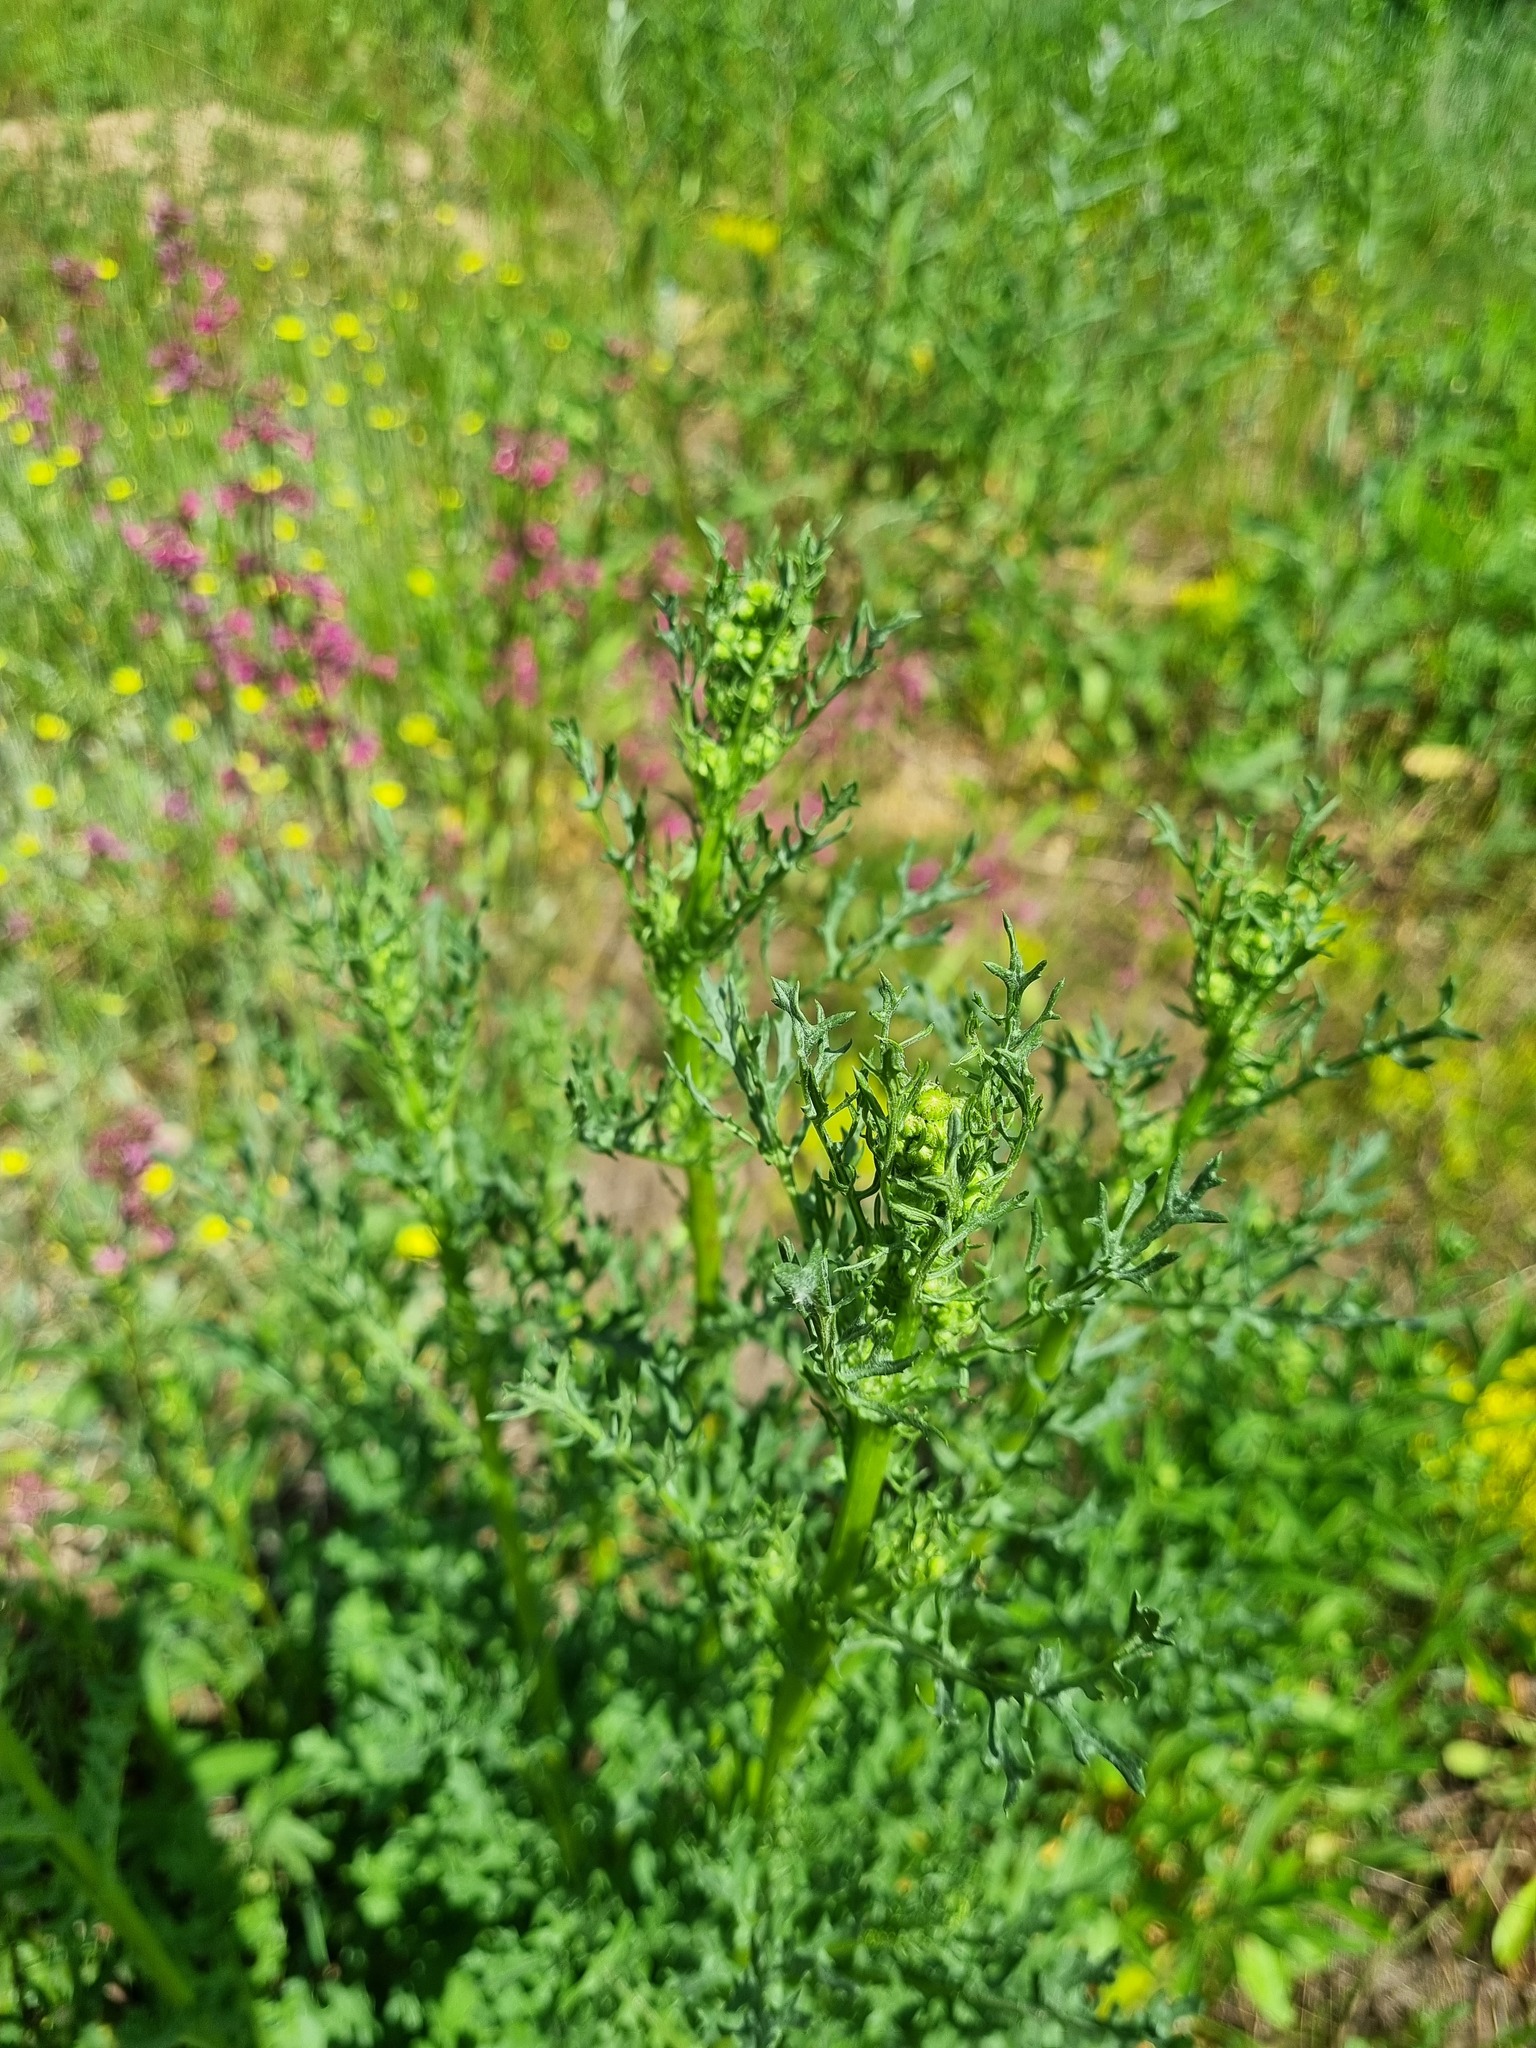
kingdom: Plantae
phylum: Tracheophyta
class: Magnoliopsida
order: Asterales
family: Asteraceae
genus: Jacobaea
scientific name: Jacobaea vulgaris
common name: Stinking willie
